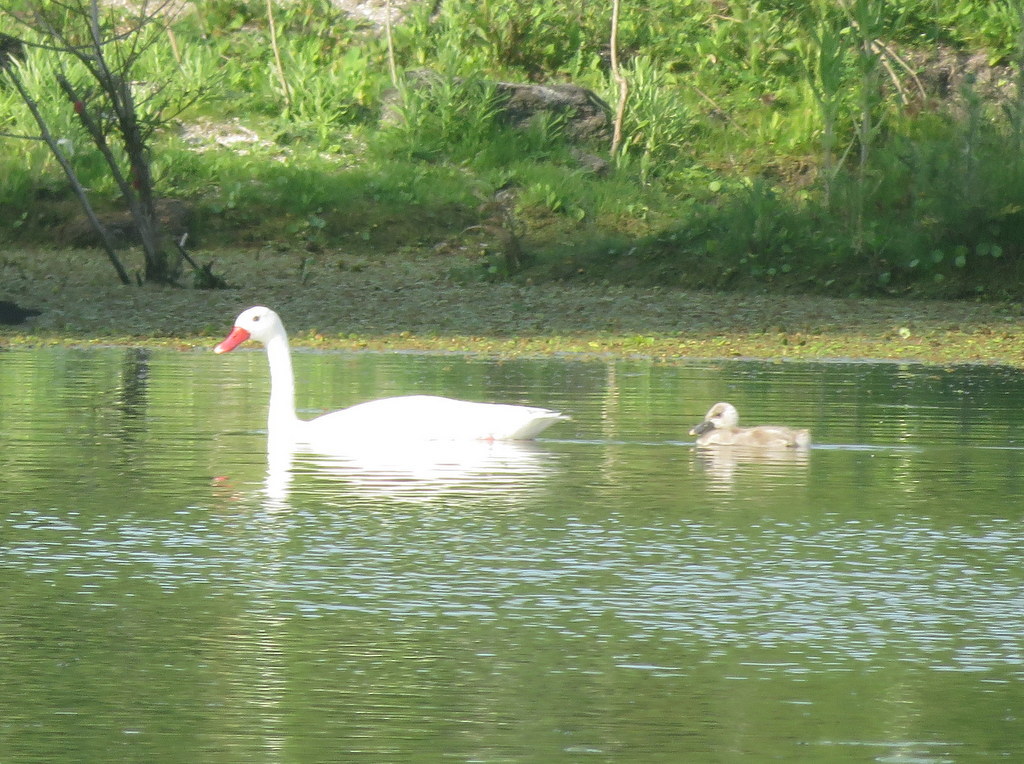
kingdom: Animalia
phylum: Chordata
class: Aves
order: Anseriformes
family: Anatidae
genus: Coscoroba
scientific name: Coscoroba coscoroba
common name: Coscoroba swan
